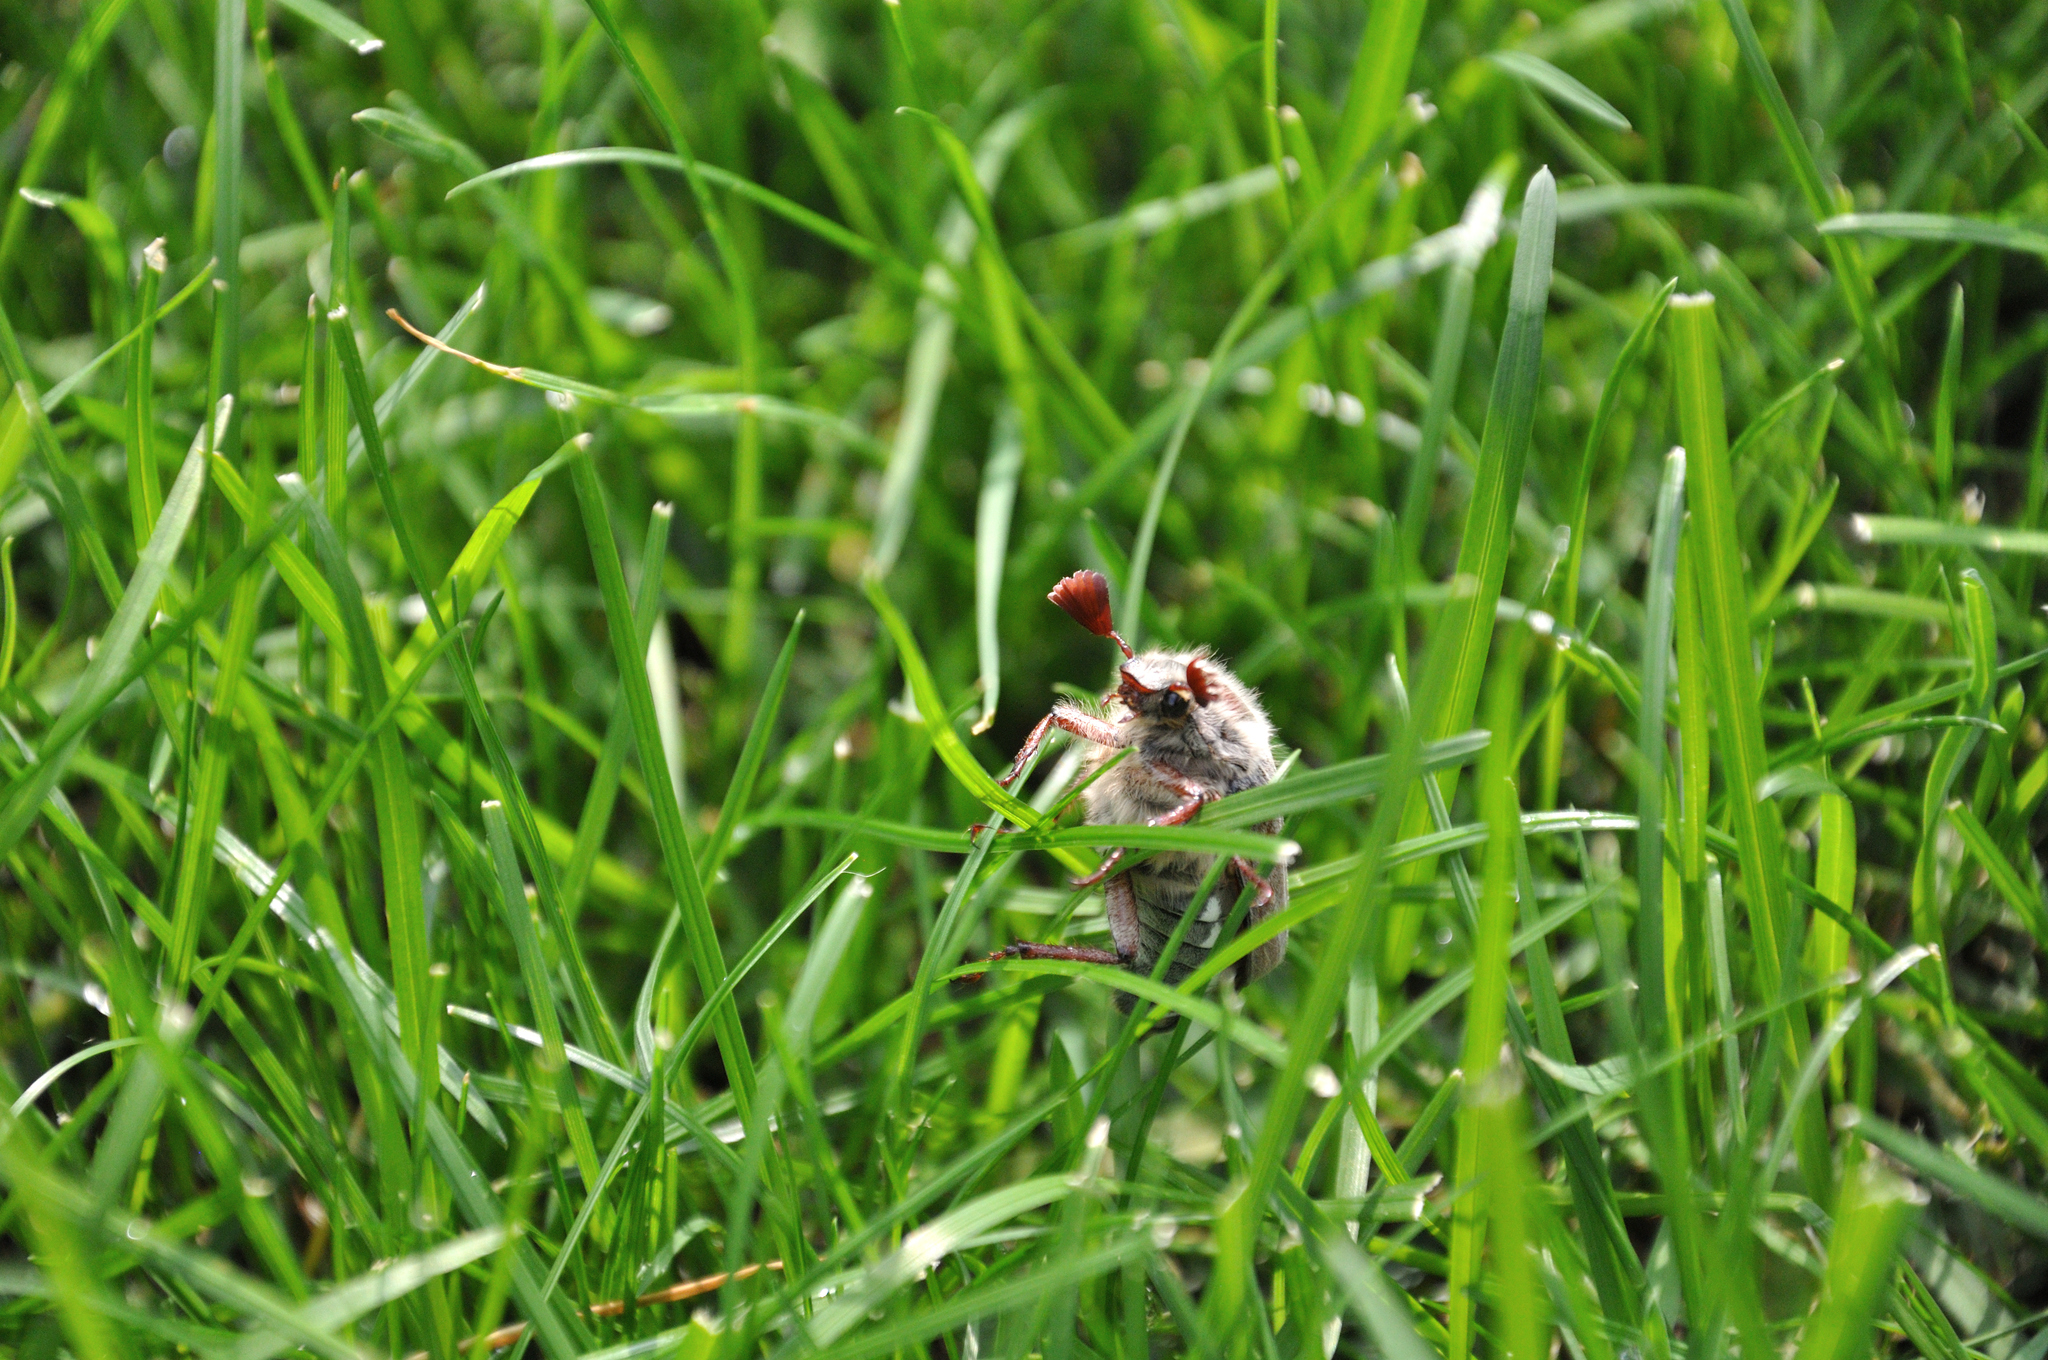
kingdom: Animalia
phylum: Arthropoda
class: Insecta
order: Coleoptera
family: Scarabaeidae
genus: Melolontha
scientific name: Melolontha melolontha
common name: Cockchafer maybeetle
